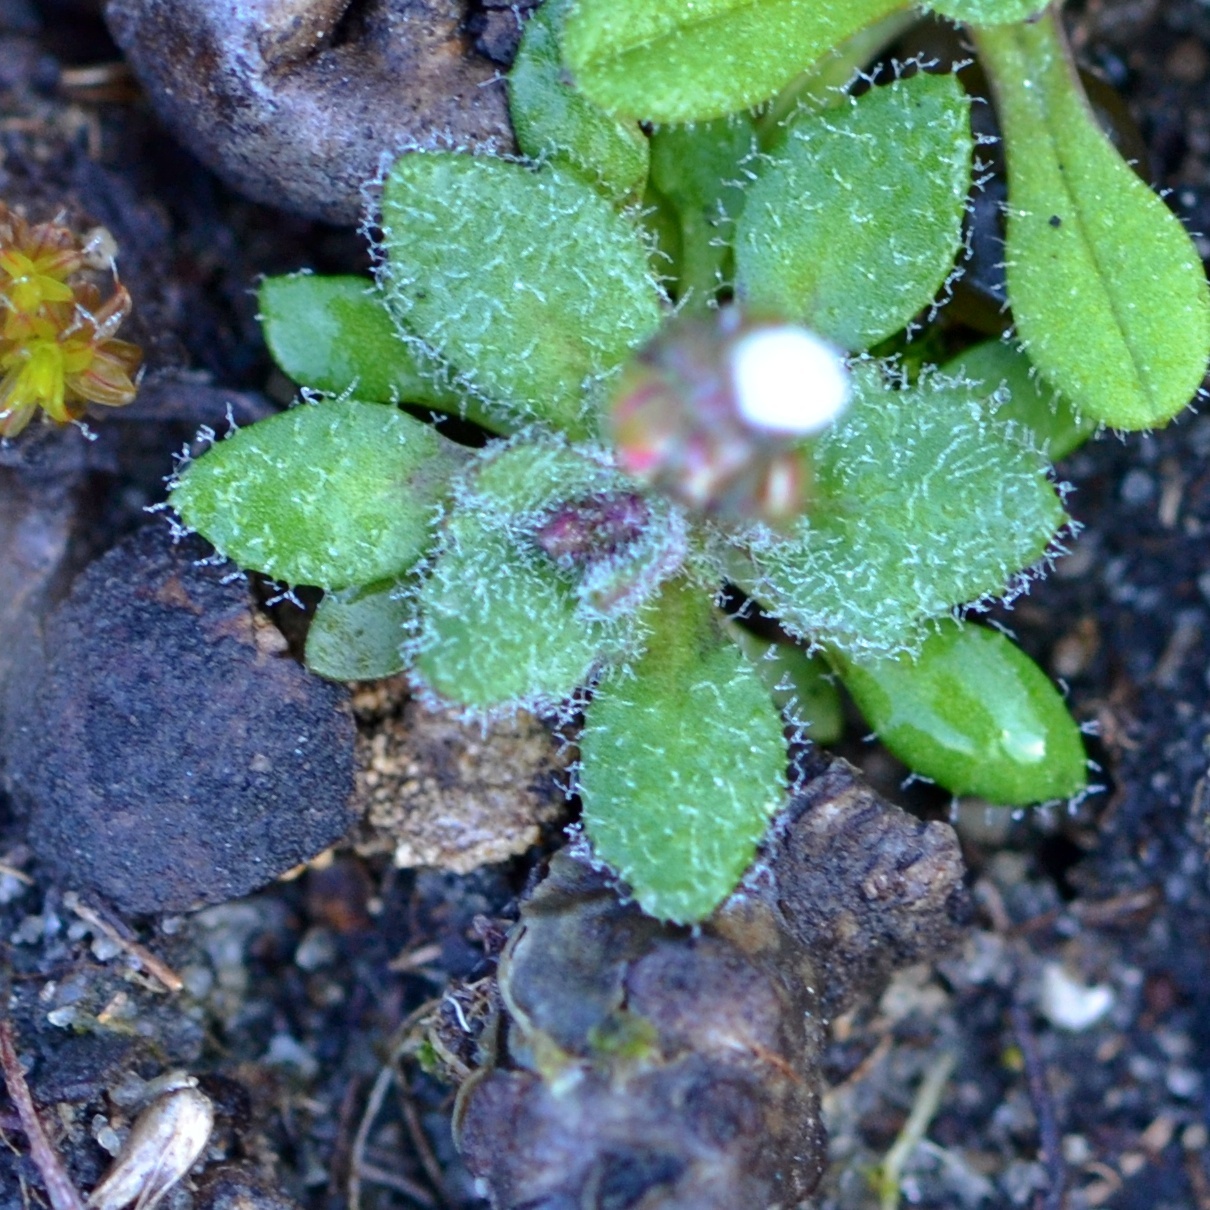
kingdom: Plantae
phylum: Tracheophyta
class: Magnoliopsida
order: Brassicales
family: Brassicaceae
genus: Draba
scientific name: Draba verna
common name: Spring draba
